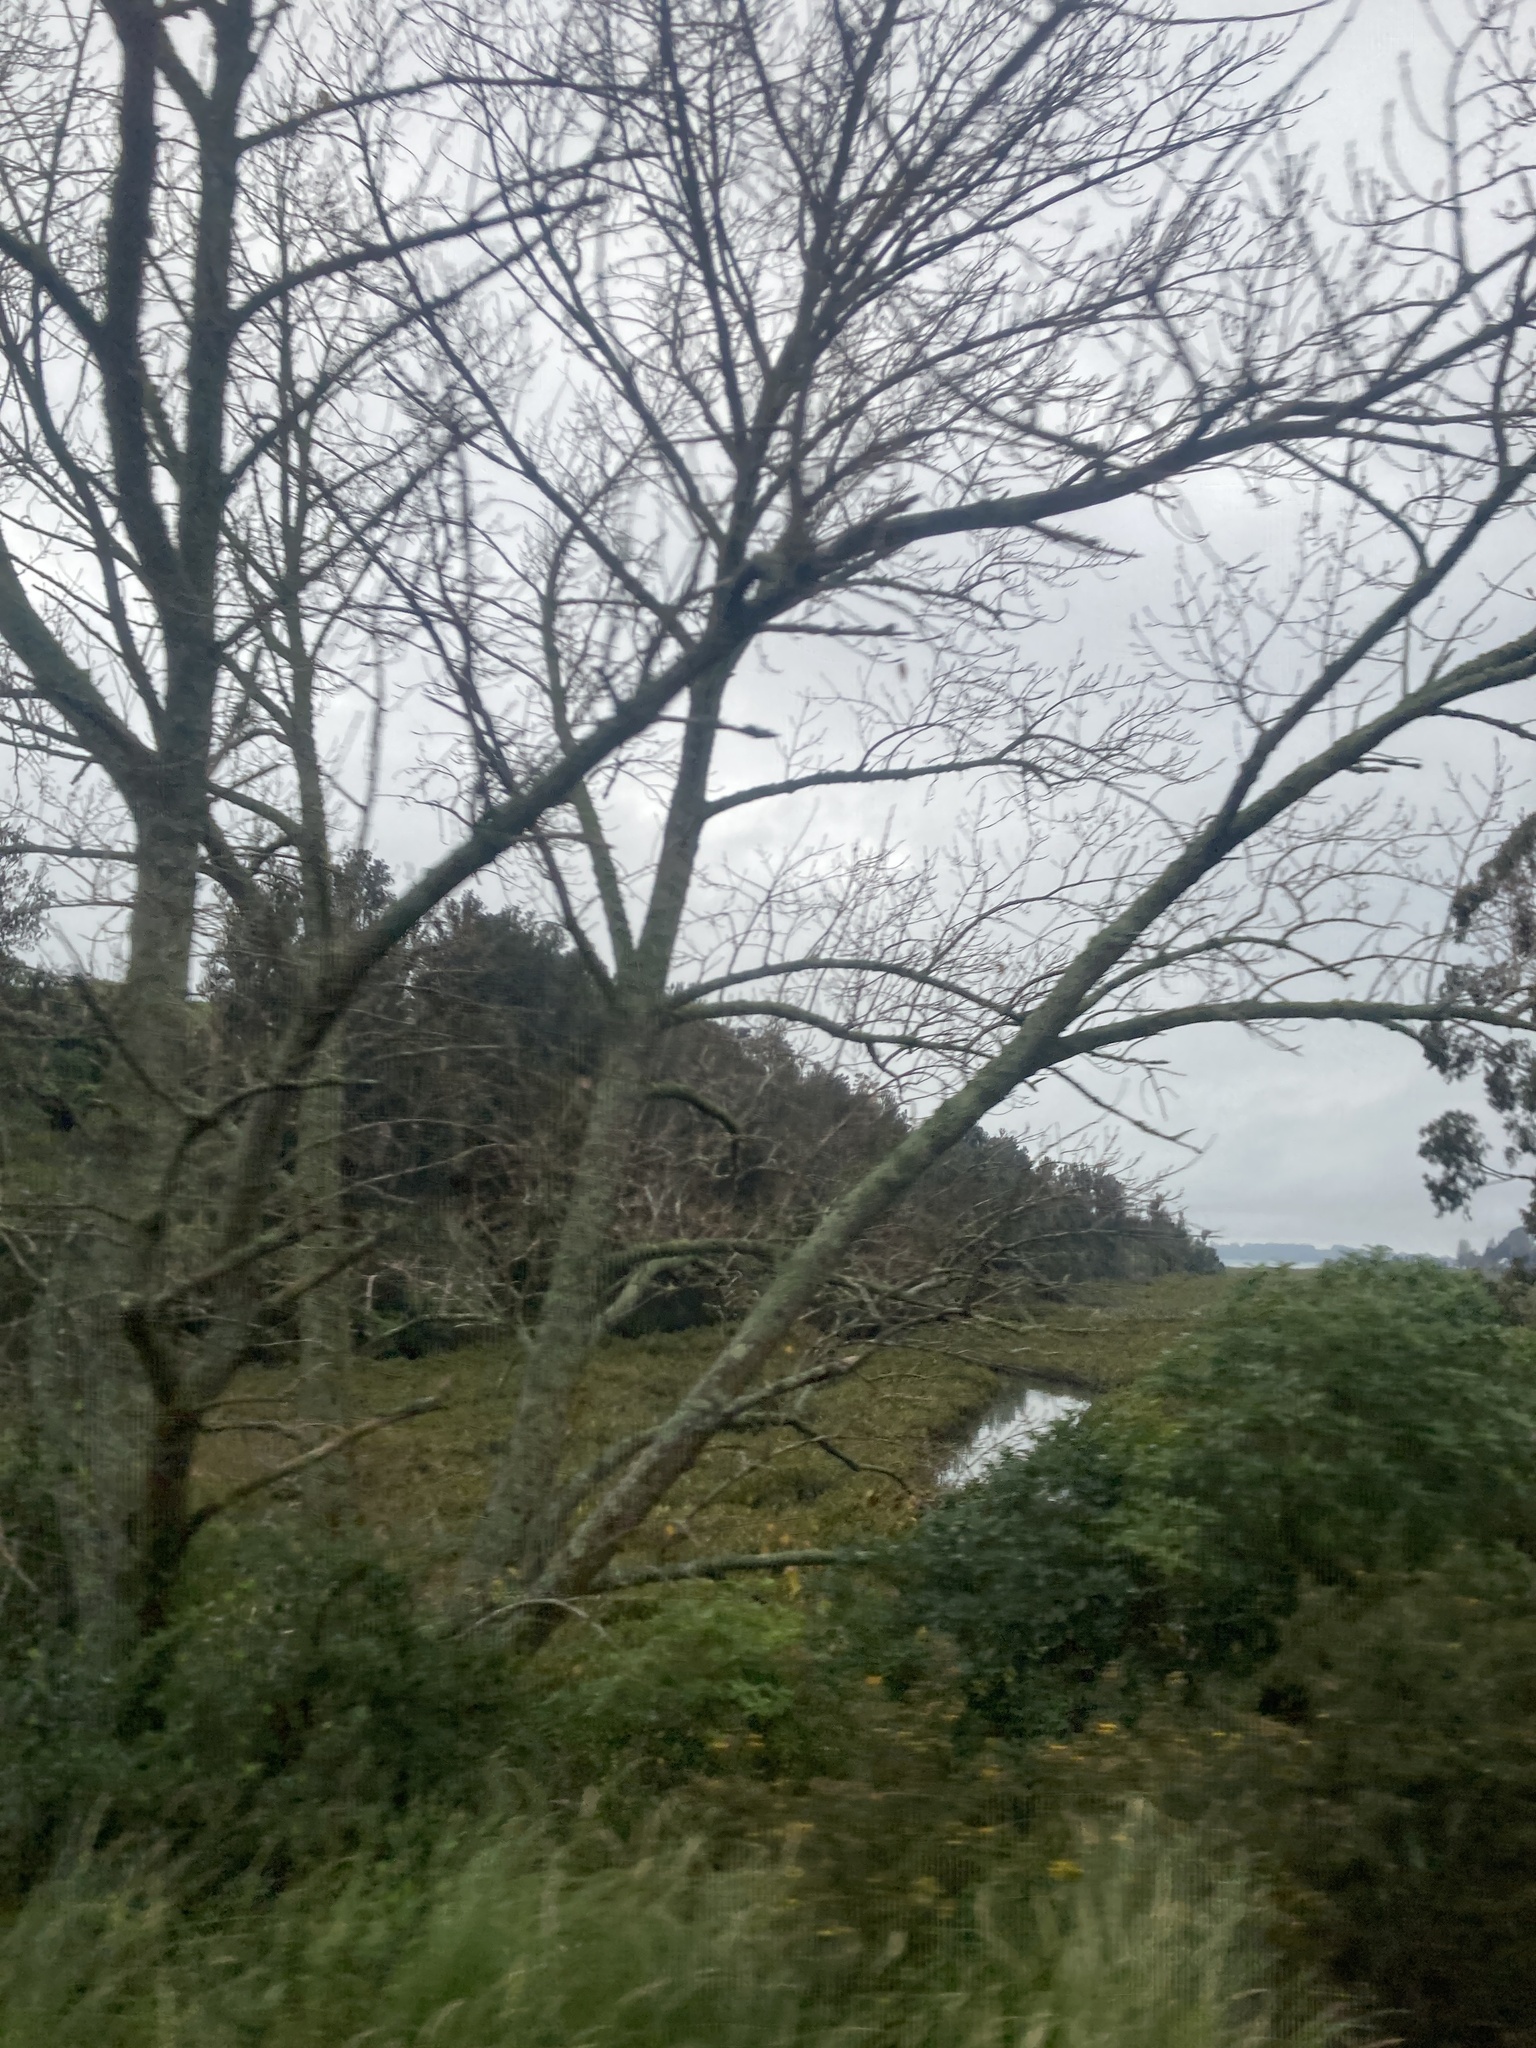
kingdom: Plantae
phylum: Tracheophyta
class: Magnoliopsida
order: Lamiales
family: Acanthaceae
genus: Avicennia
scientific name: Avicennia marina
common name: Gray mangrove
